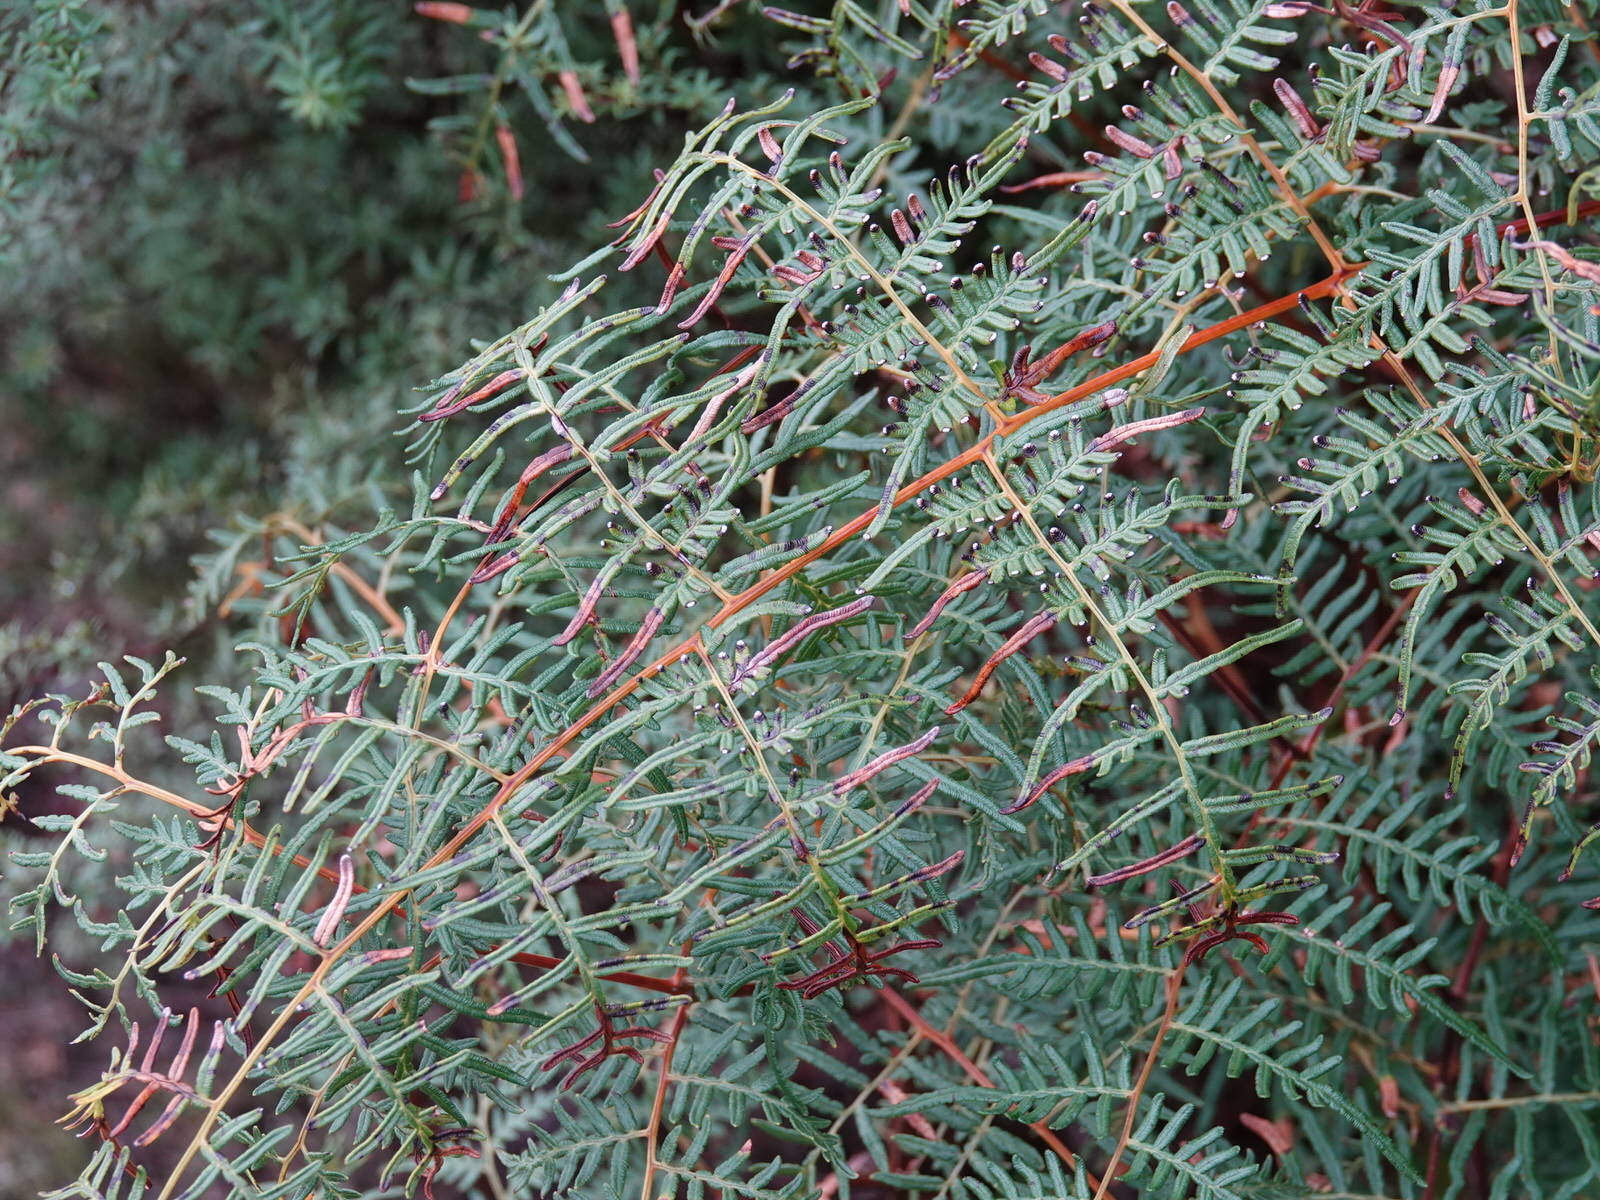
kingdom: Plantae
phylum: Tracheophyta
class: Polypodiopsida
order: Polypodiales
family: Dennstaedtiaceae
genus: Pteridium
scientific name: Pteridium esculentum
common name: Bracken fern
